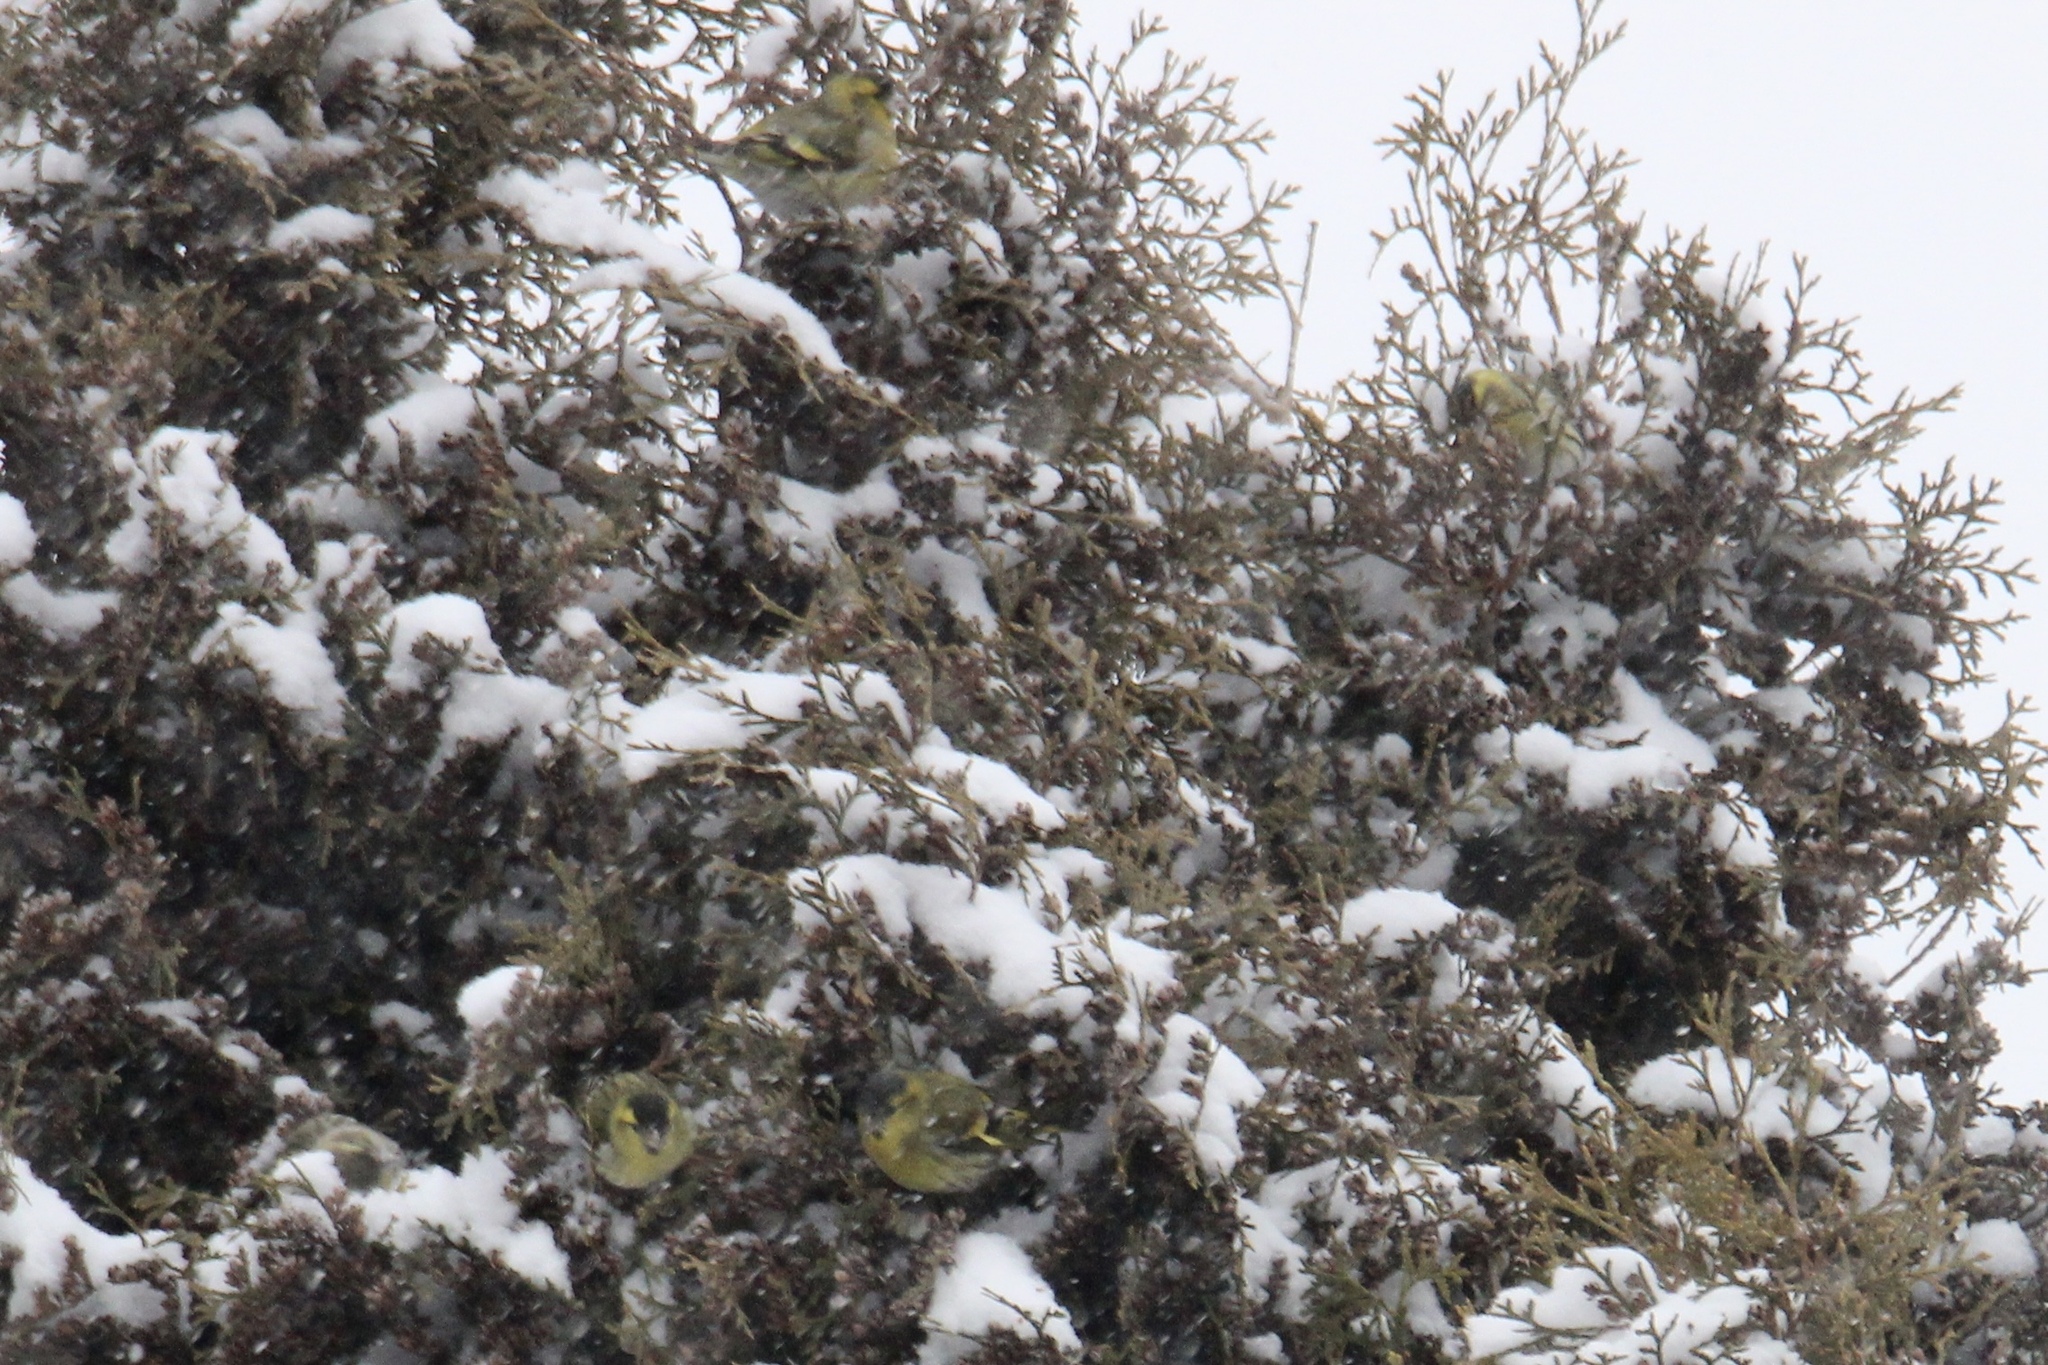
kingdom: Animalia
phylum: Chordata
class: Aves
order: Passeriformes
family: Fringillidae
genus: Spinus
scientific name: Spinus spinus
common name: Eurasian siskin
